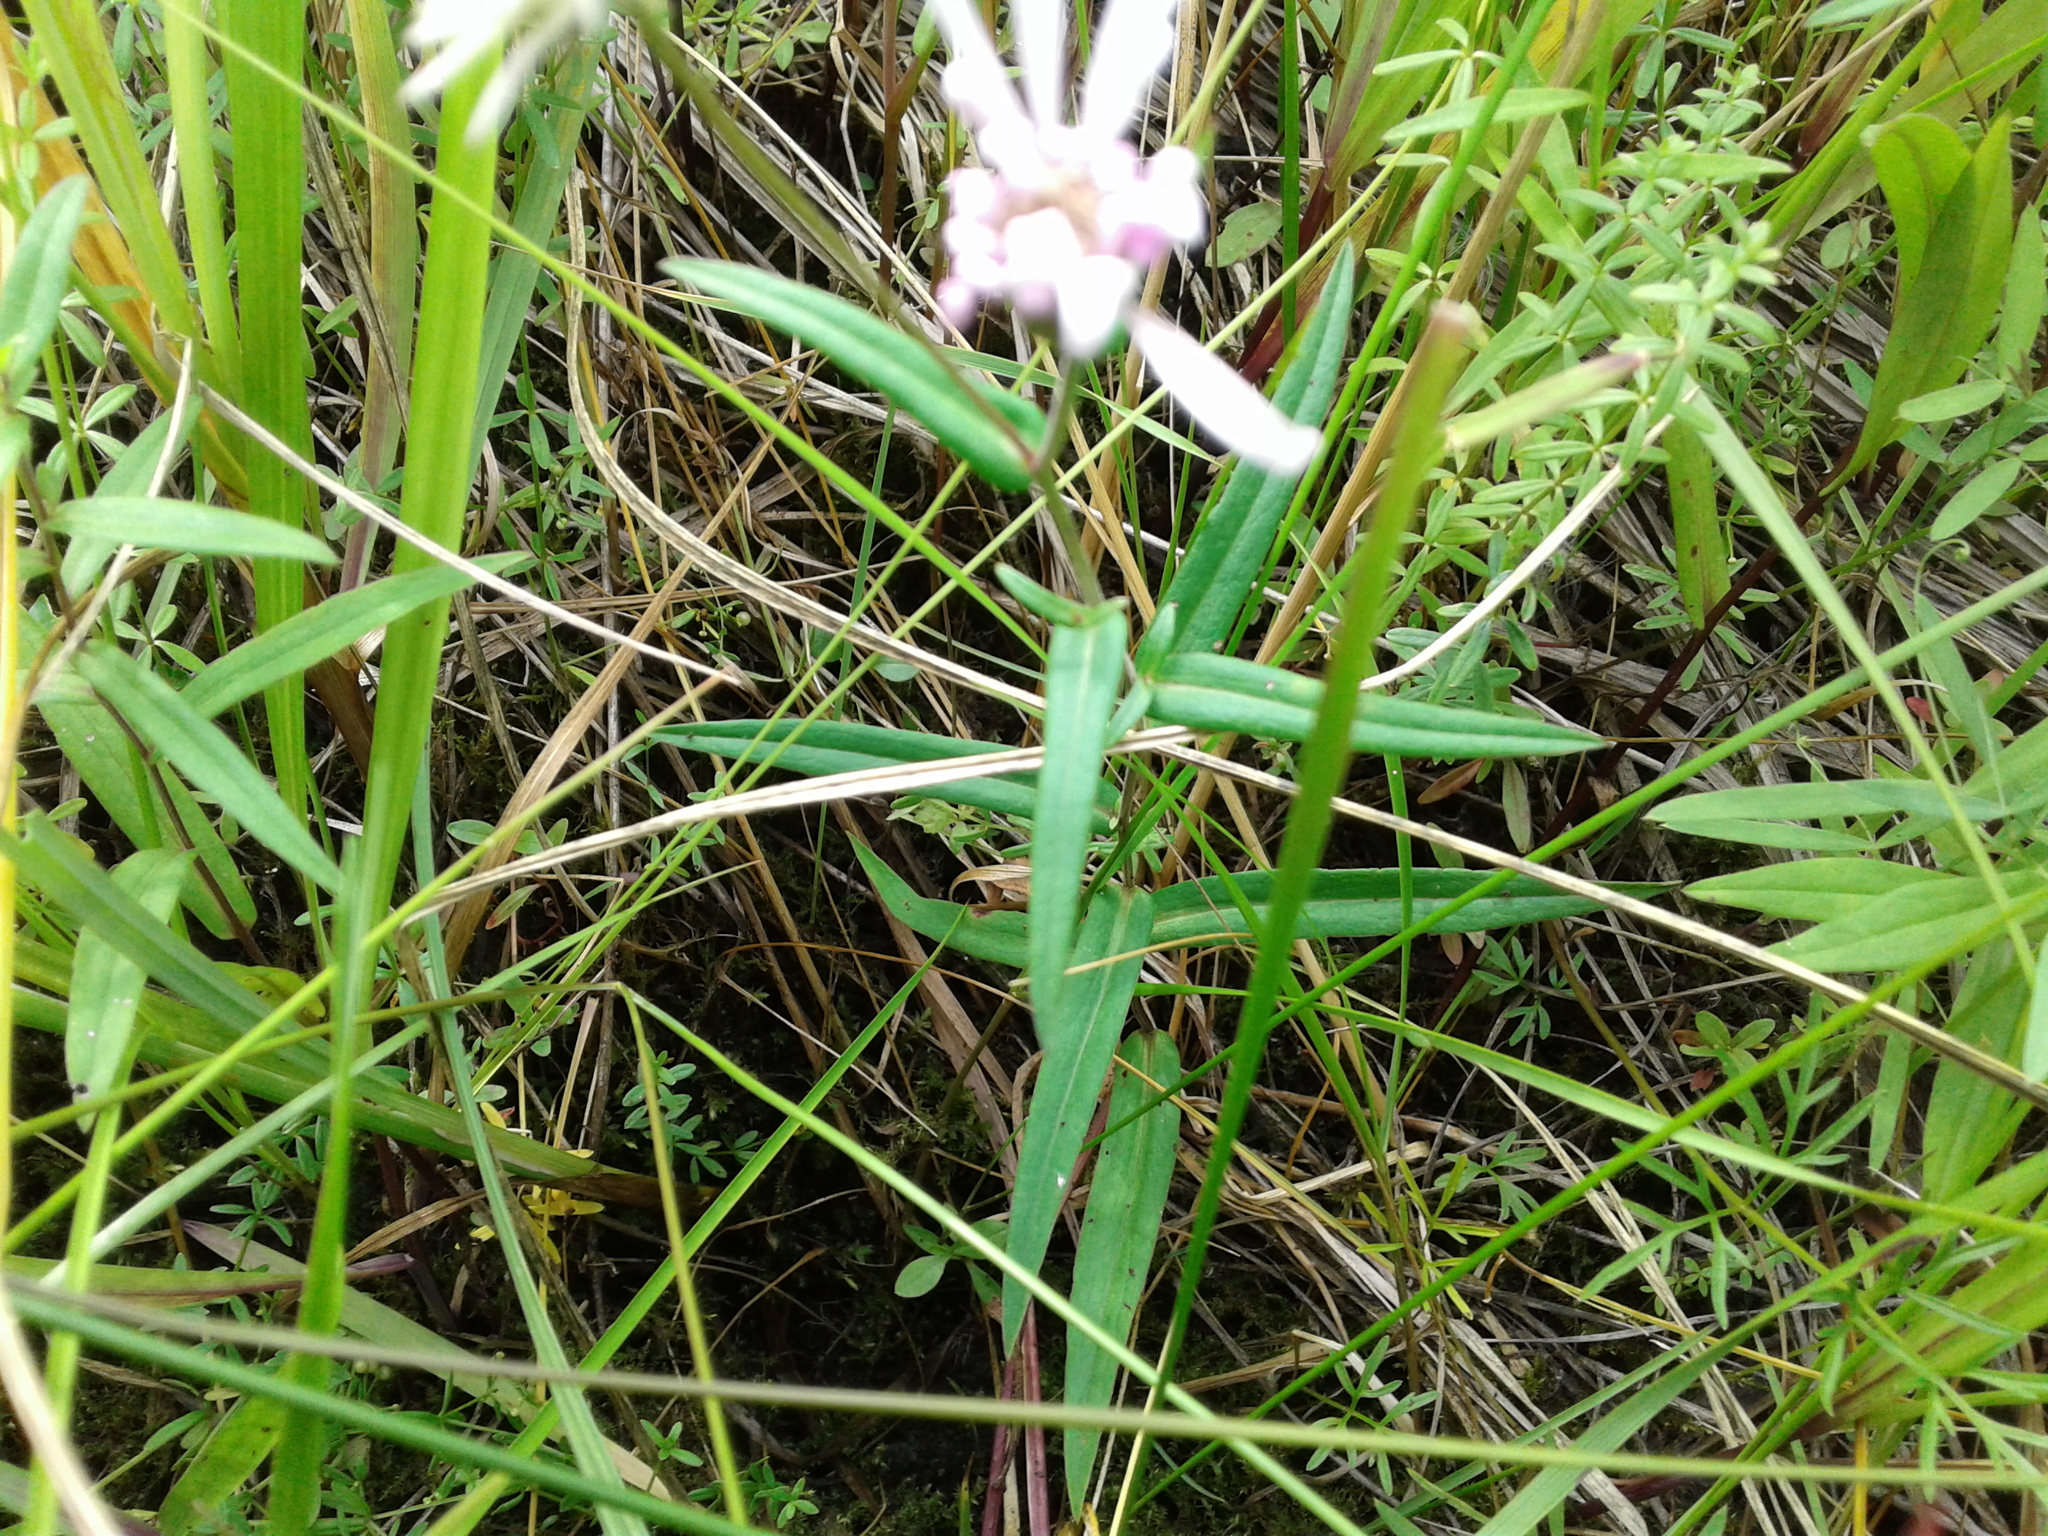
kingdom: Plantae
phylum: Tracheophyta
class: Magnoliopsida
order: Asterales
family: Asteraceae
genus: Symphyotrichum
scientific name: Symphyotrichum boreale
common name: Northern bog aster
